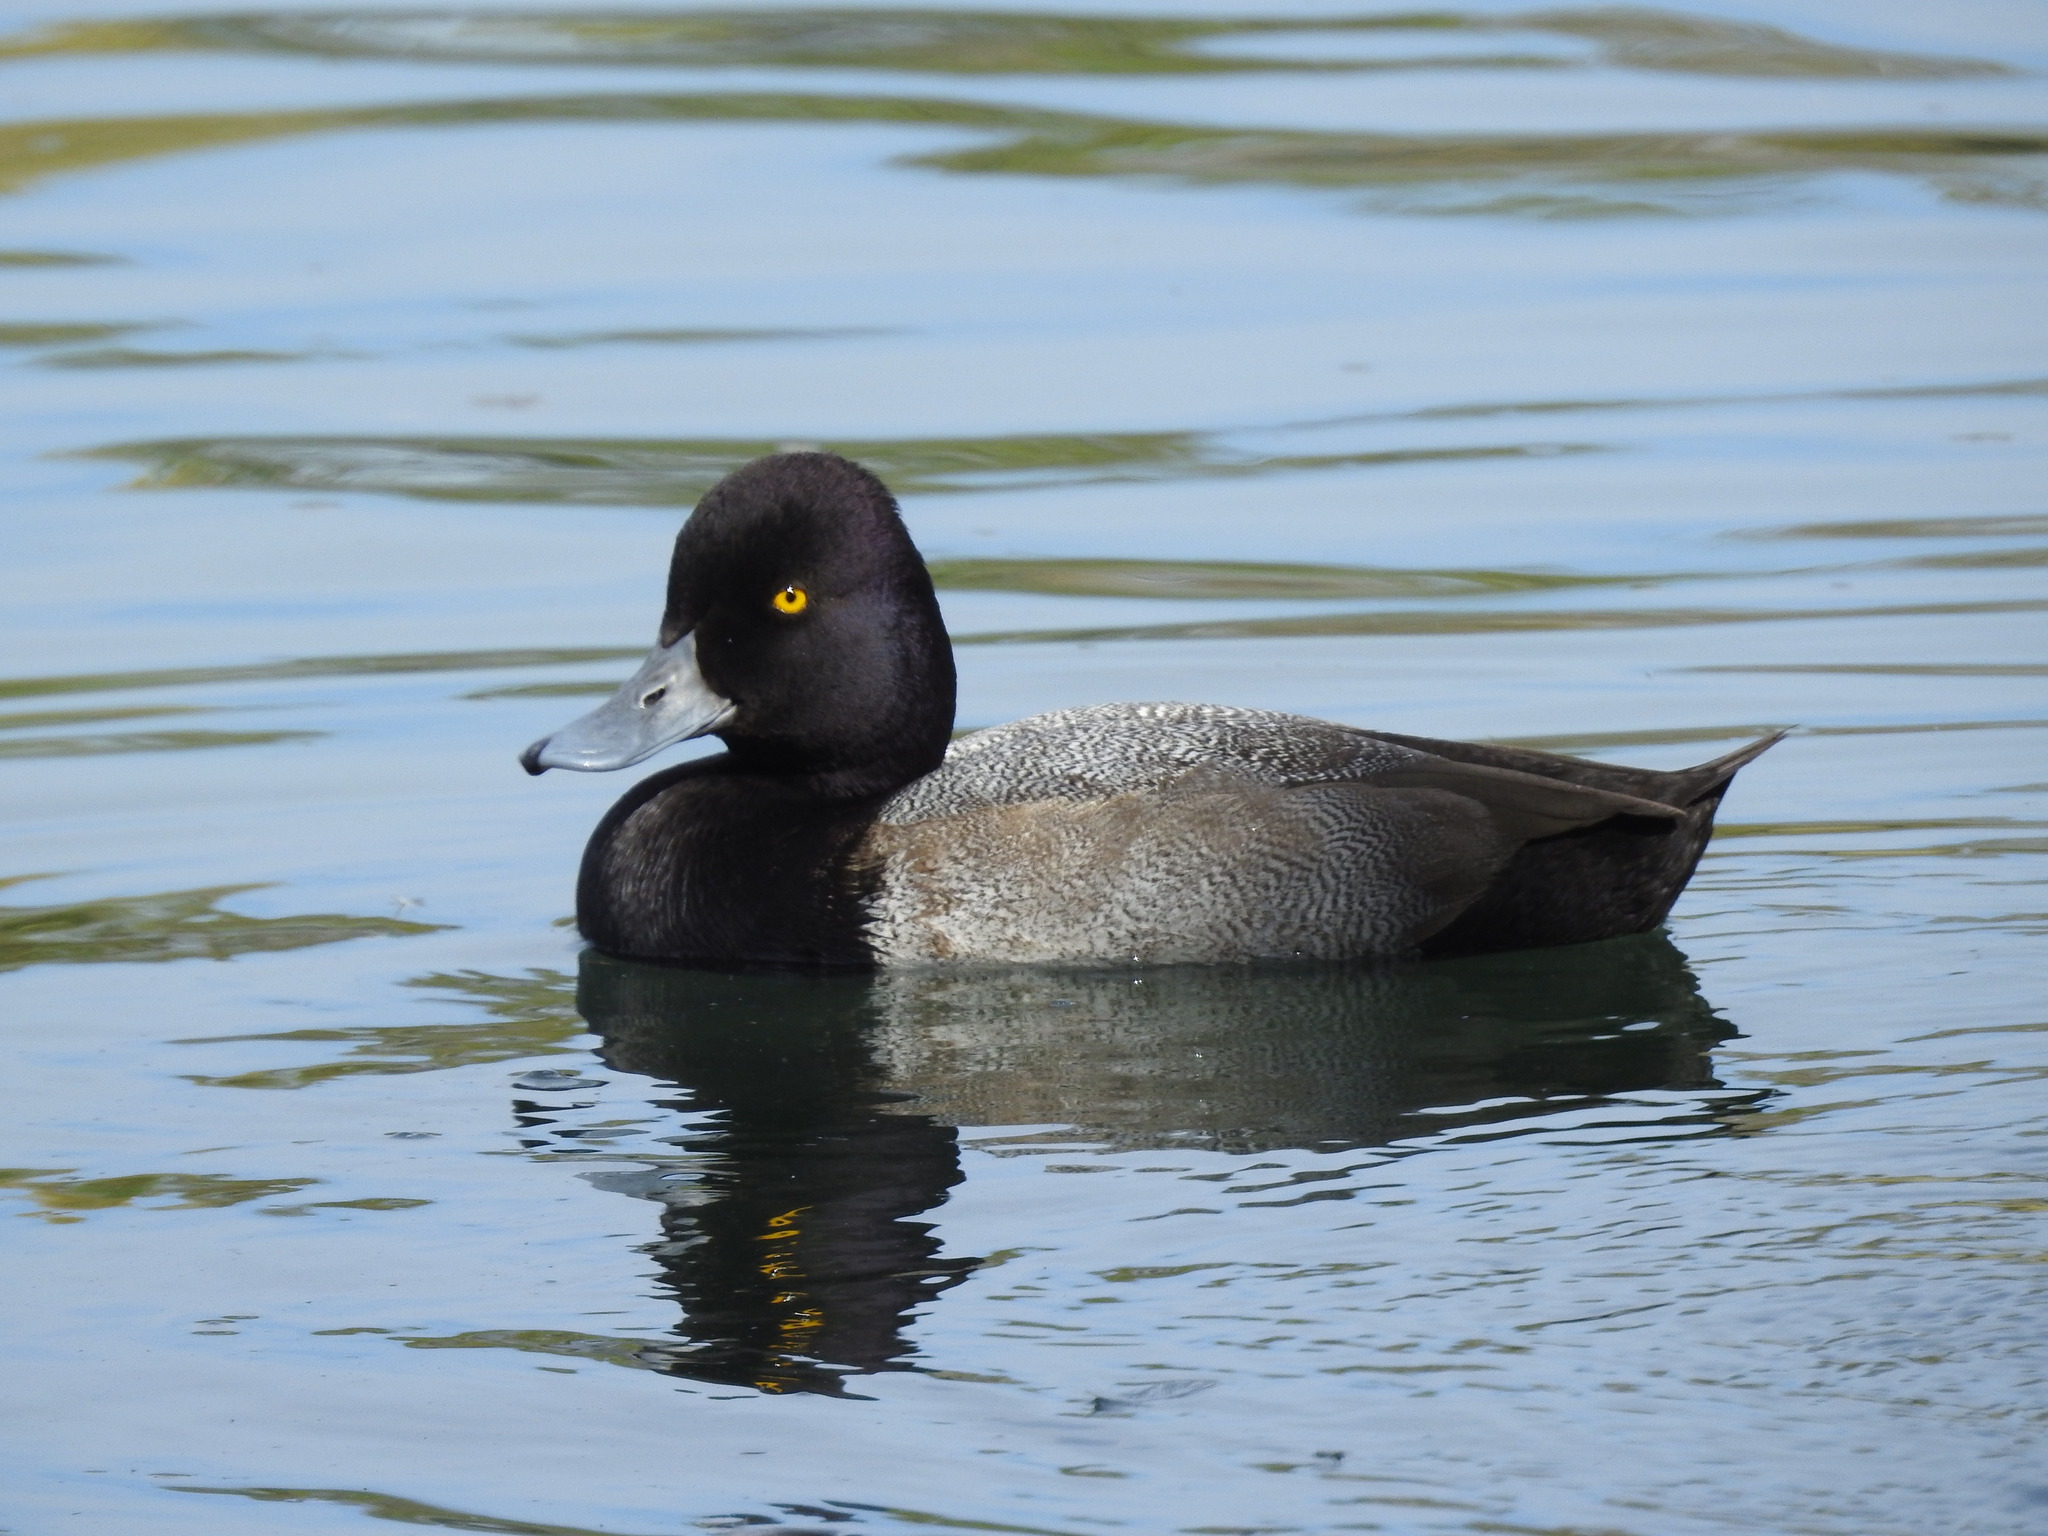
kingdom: Animalia
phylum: Chordata
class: Aves
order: Anseriformes
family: Anatidae
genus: Aythya
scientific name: Aythya affinis
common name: Lesser scaup
